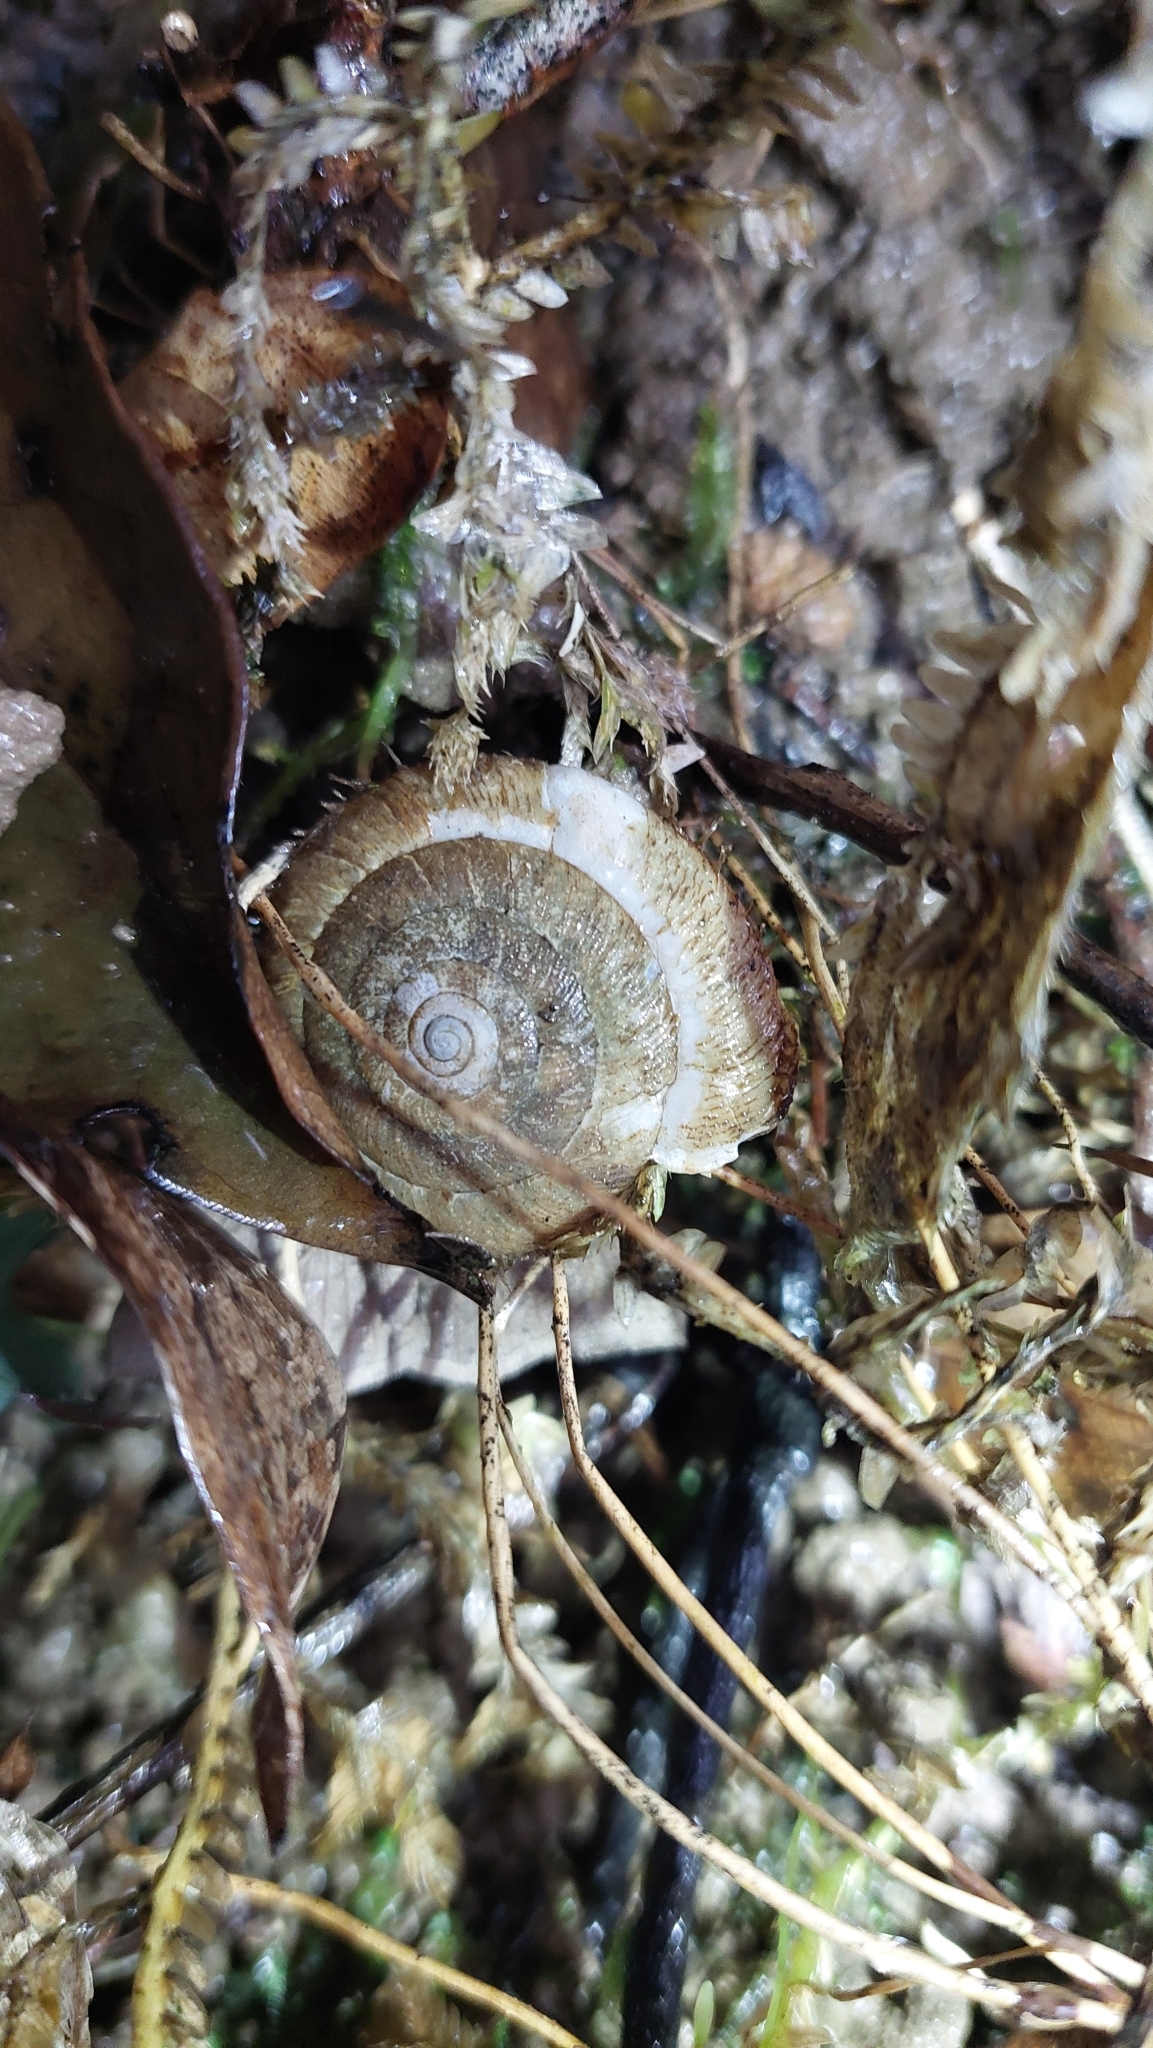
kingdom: Animalia
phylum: Mollusca
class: Gastropoda
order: Stylommatophora
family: Camaenidae
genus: Plectotropis
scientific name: Plectotropis mackensii
